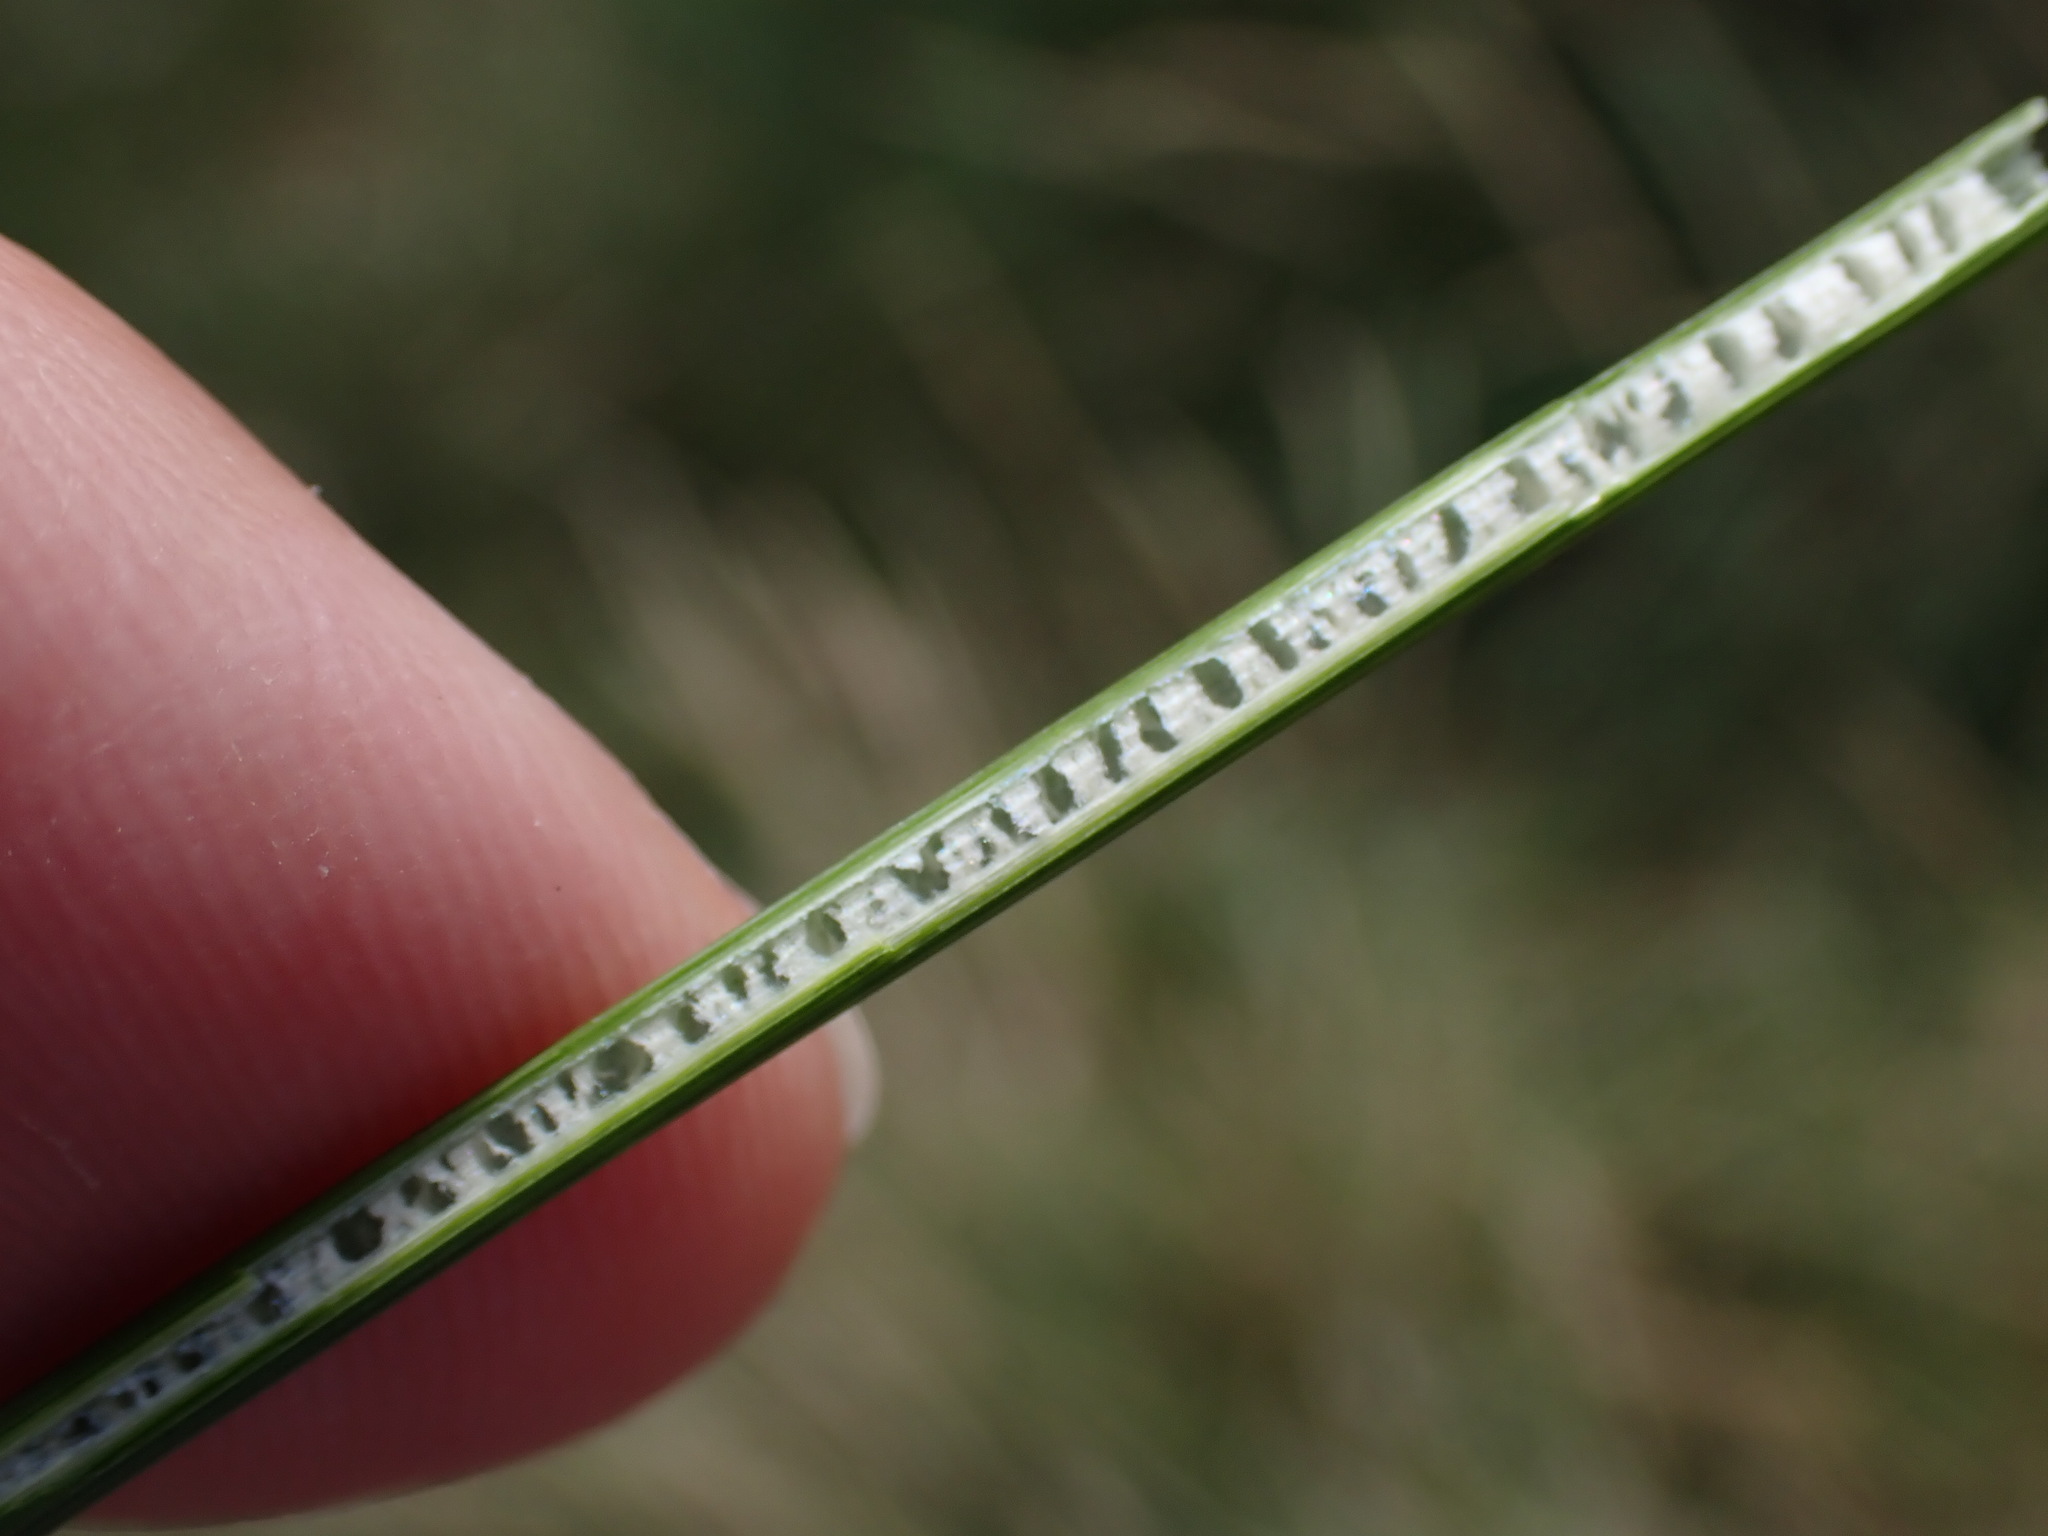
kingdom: Plantae
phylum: Tracheophyta
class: Liliopsida
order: Poales
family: Juncaceae
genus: Juncus
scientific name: Juncus inflexus
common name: Hard rush
